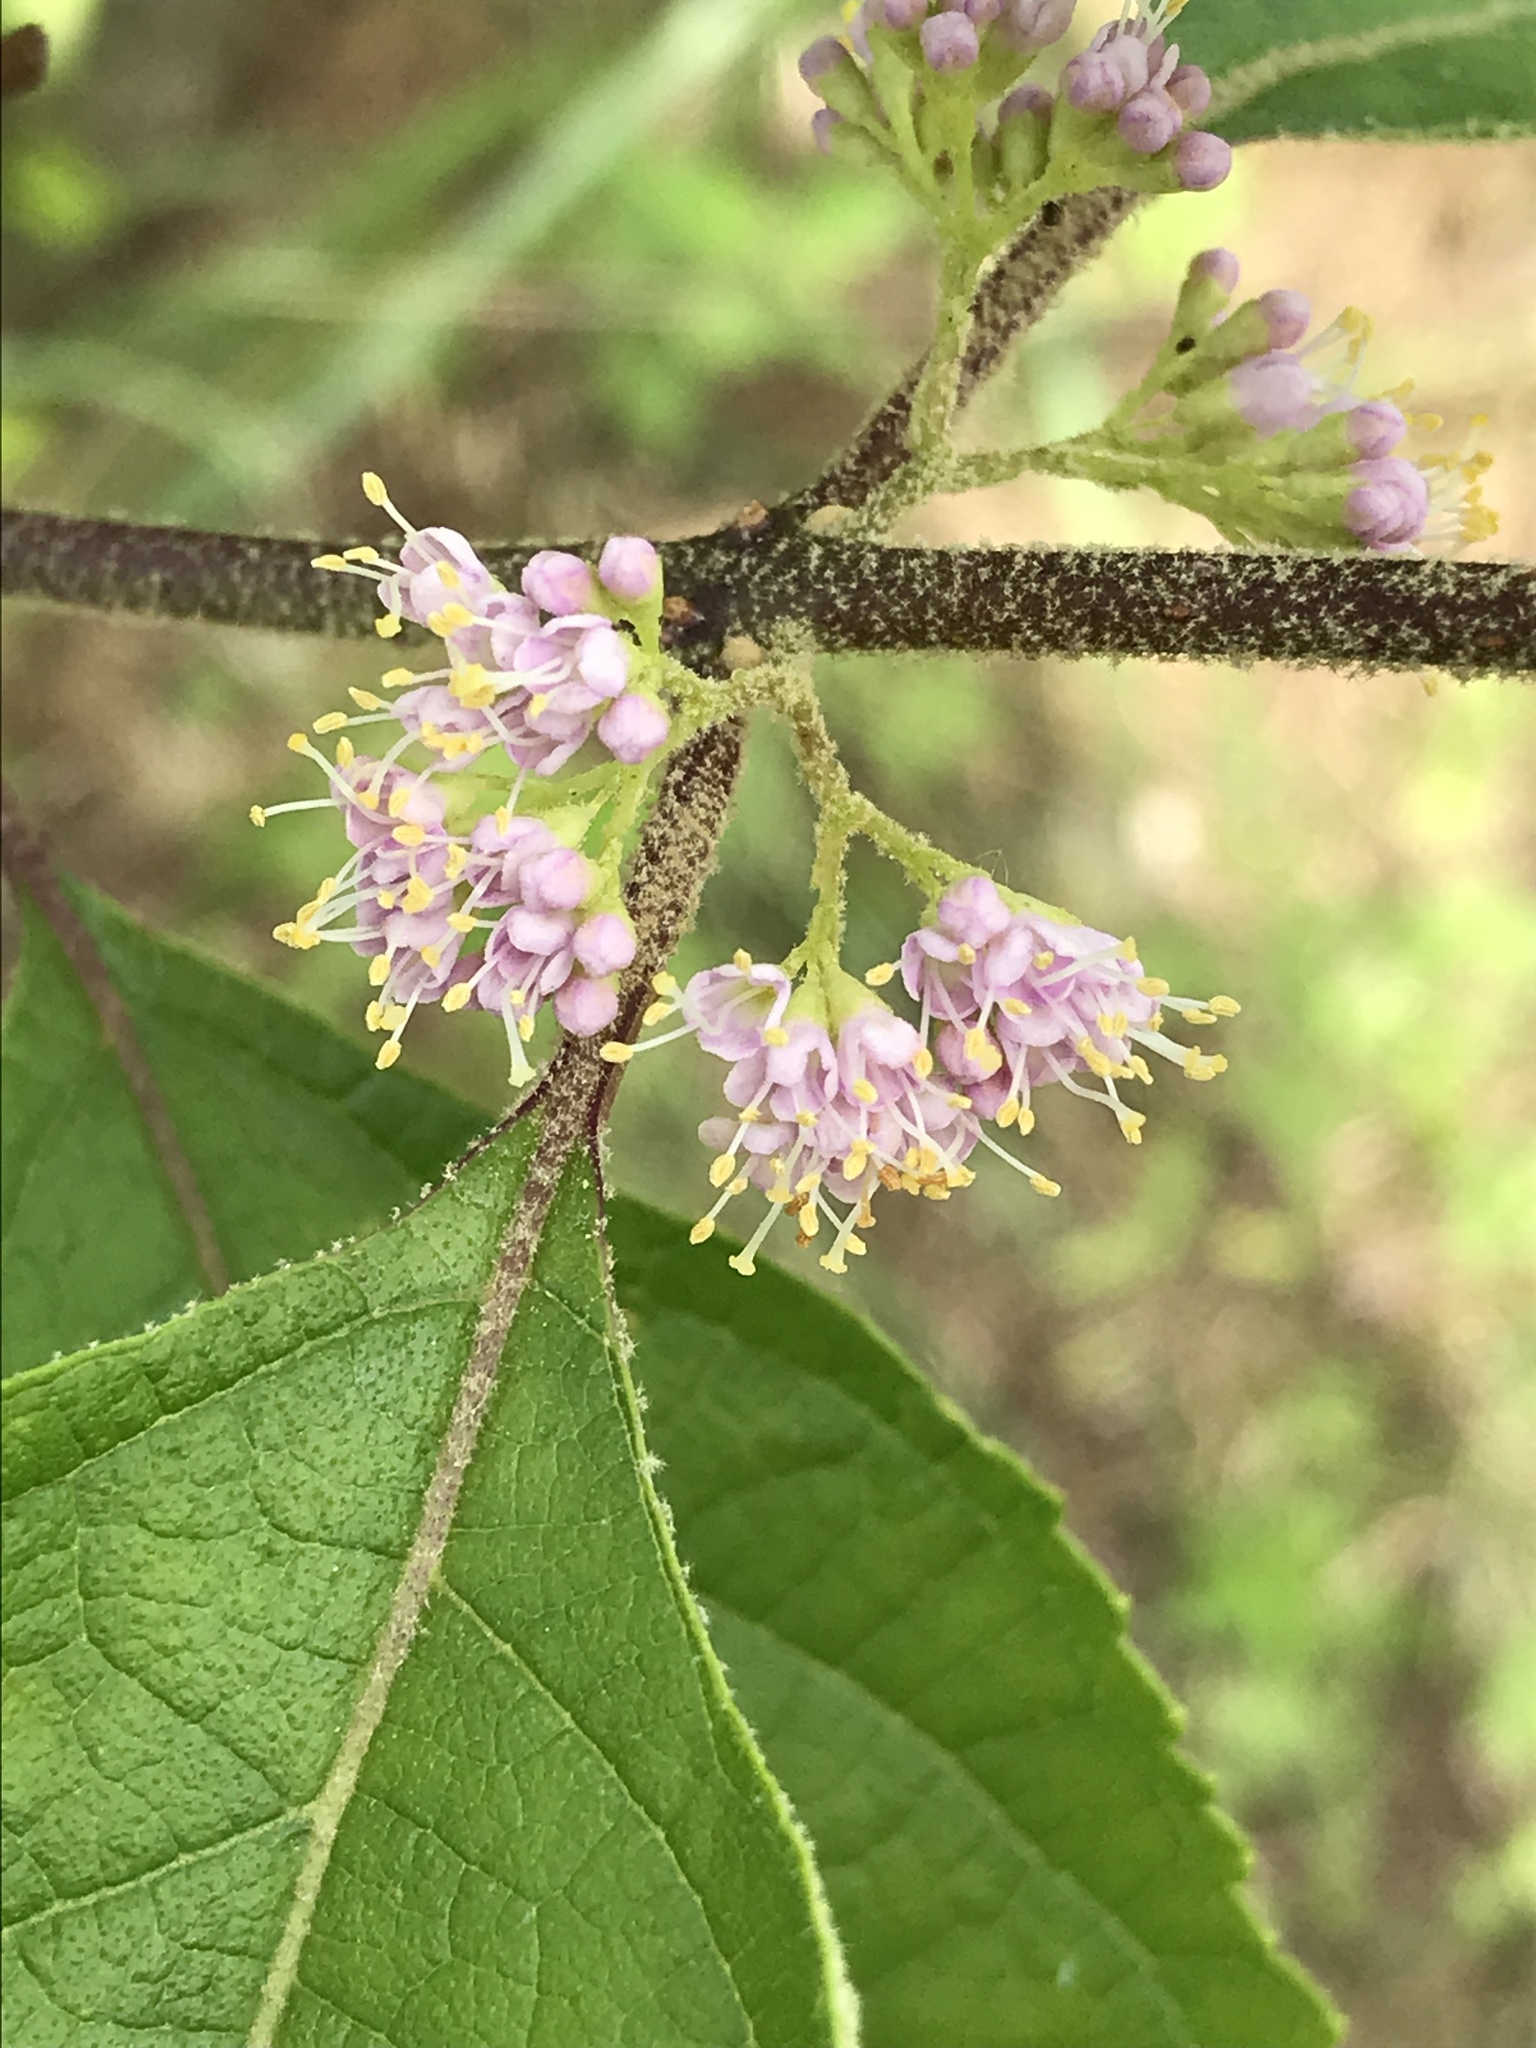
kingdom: Plantae
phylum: Tracheophyta
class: Magnoliopsida
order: Lamiales
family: Lamiaceae
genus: Callicarpa
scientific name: Callicarpa americana
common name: American beautyberry
